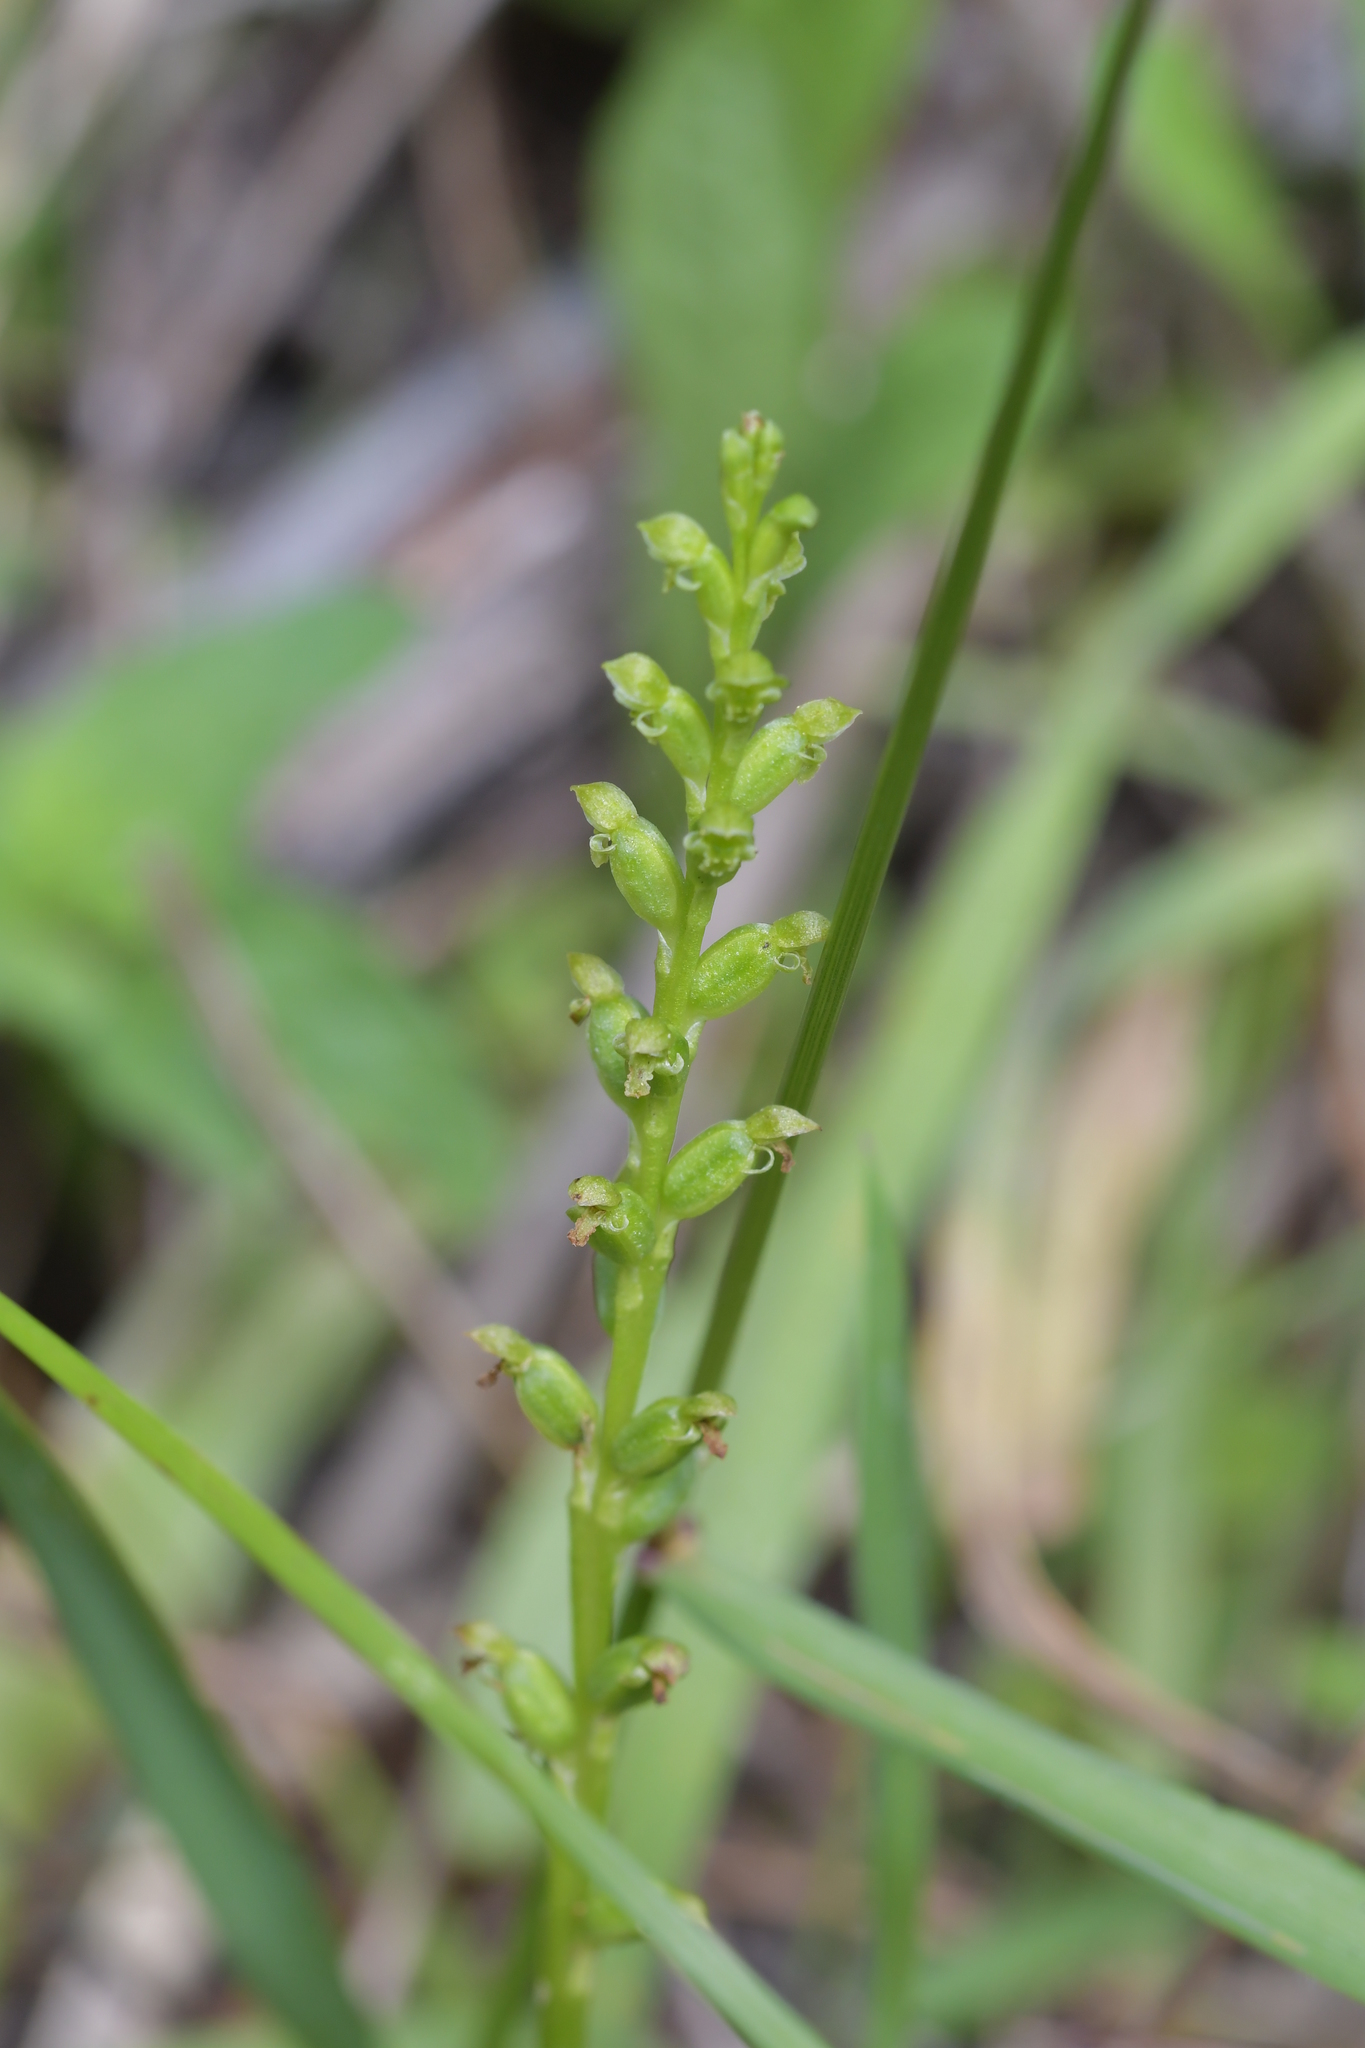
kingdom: Plantae
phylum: Tracheophyta
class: Liliopsida
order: Asparagales
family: Orchidaceae
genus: Microtis
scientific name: Microtis unifolia
